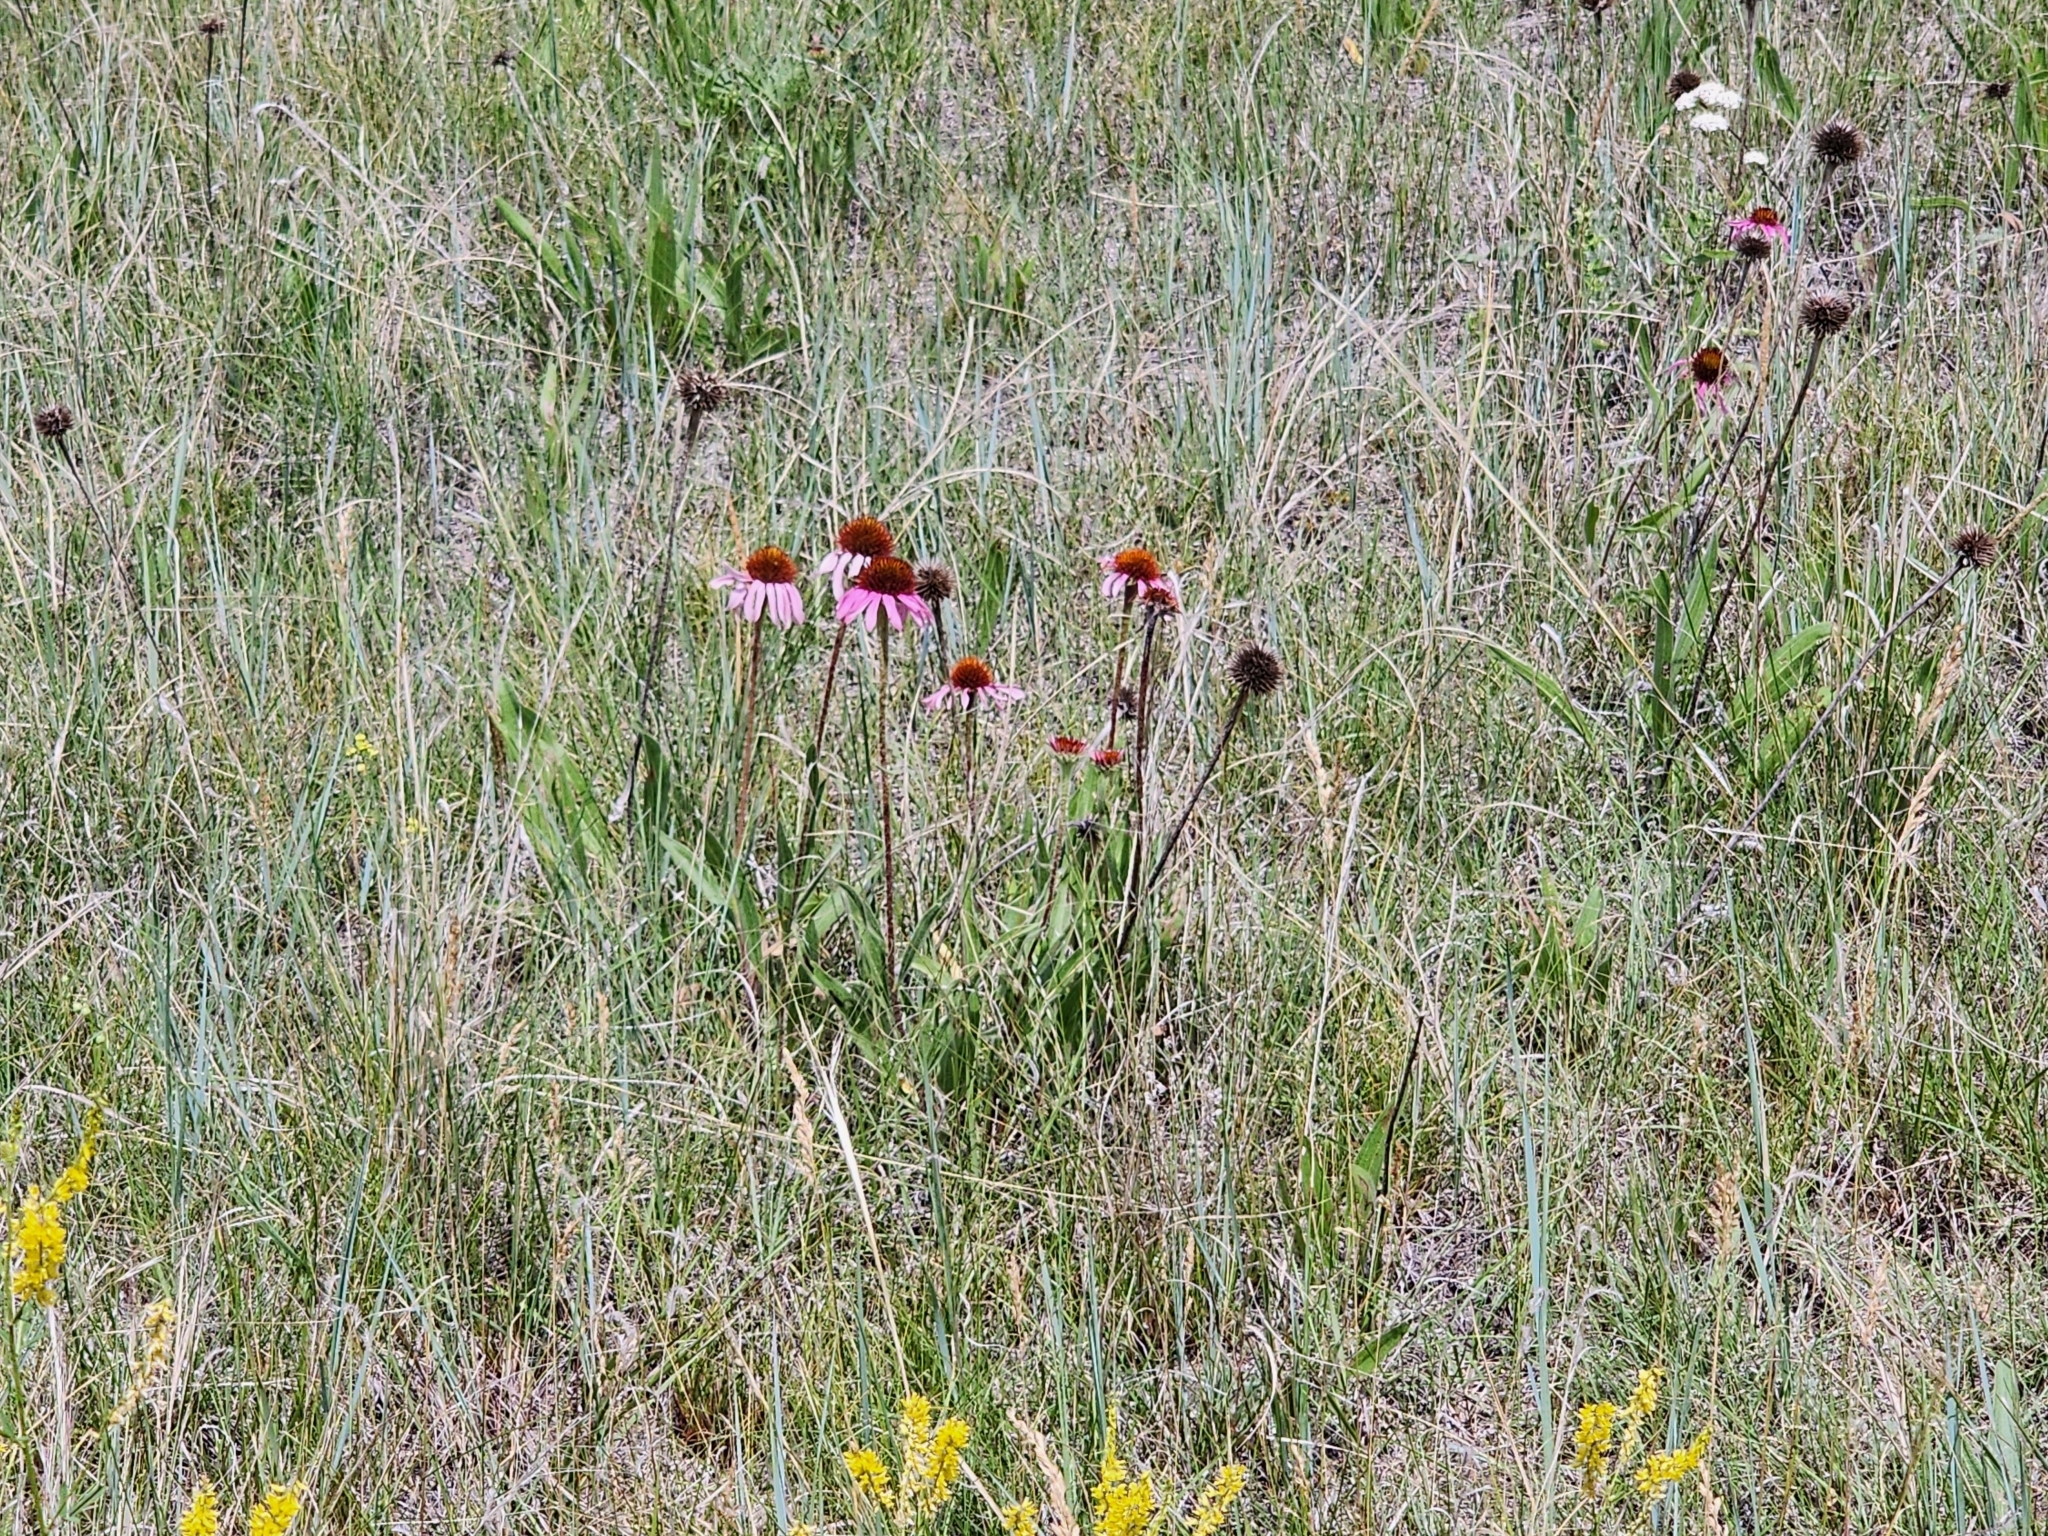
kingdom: Plantae
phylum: Tracheophyta
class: Magnoliopsida
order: Asterales
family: Asteraceae
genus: Echinacea
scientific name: Echinacea angustifolia
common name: Black-sampson echinacea
